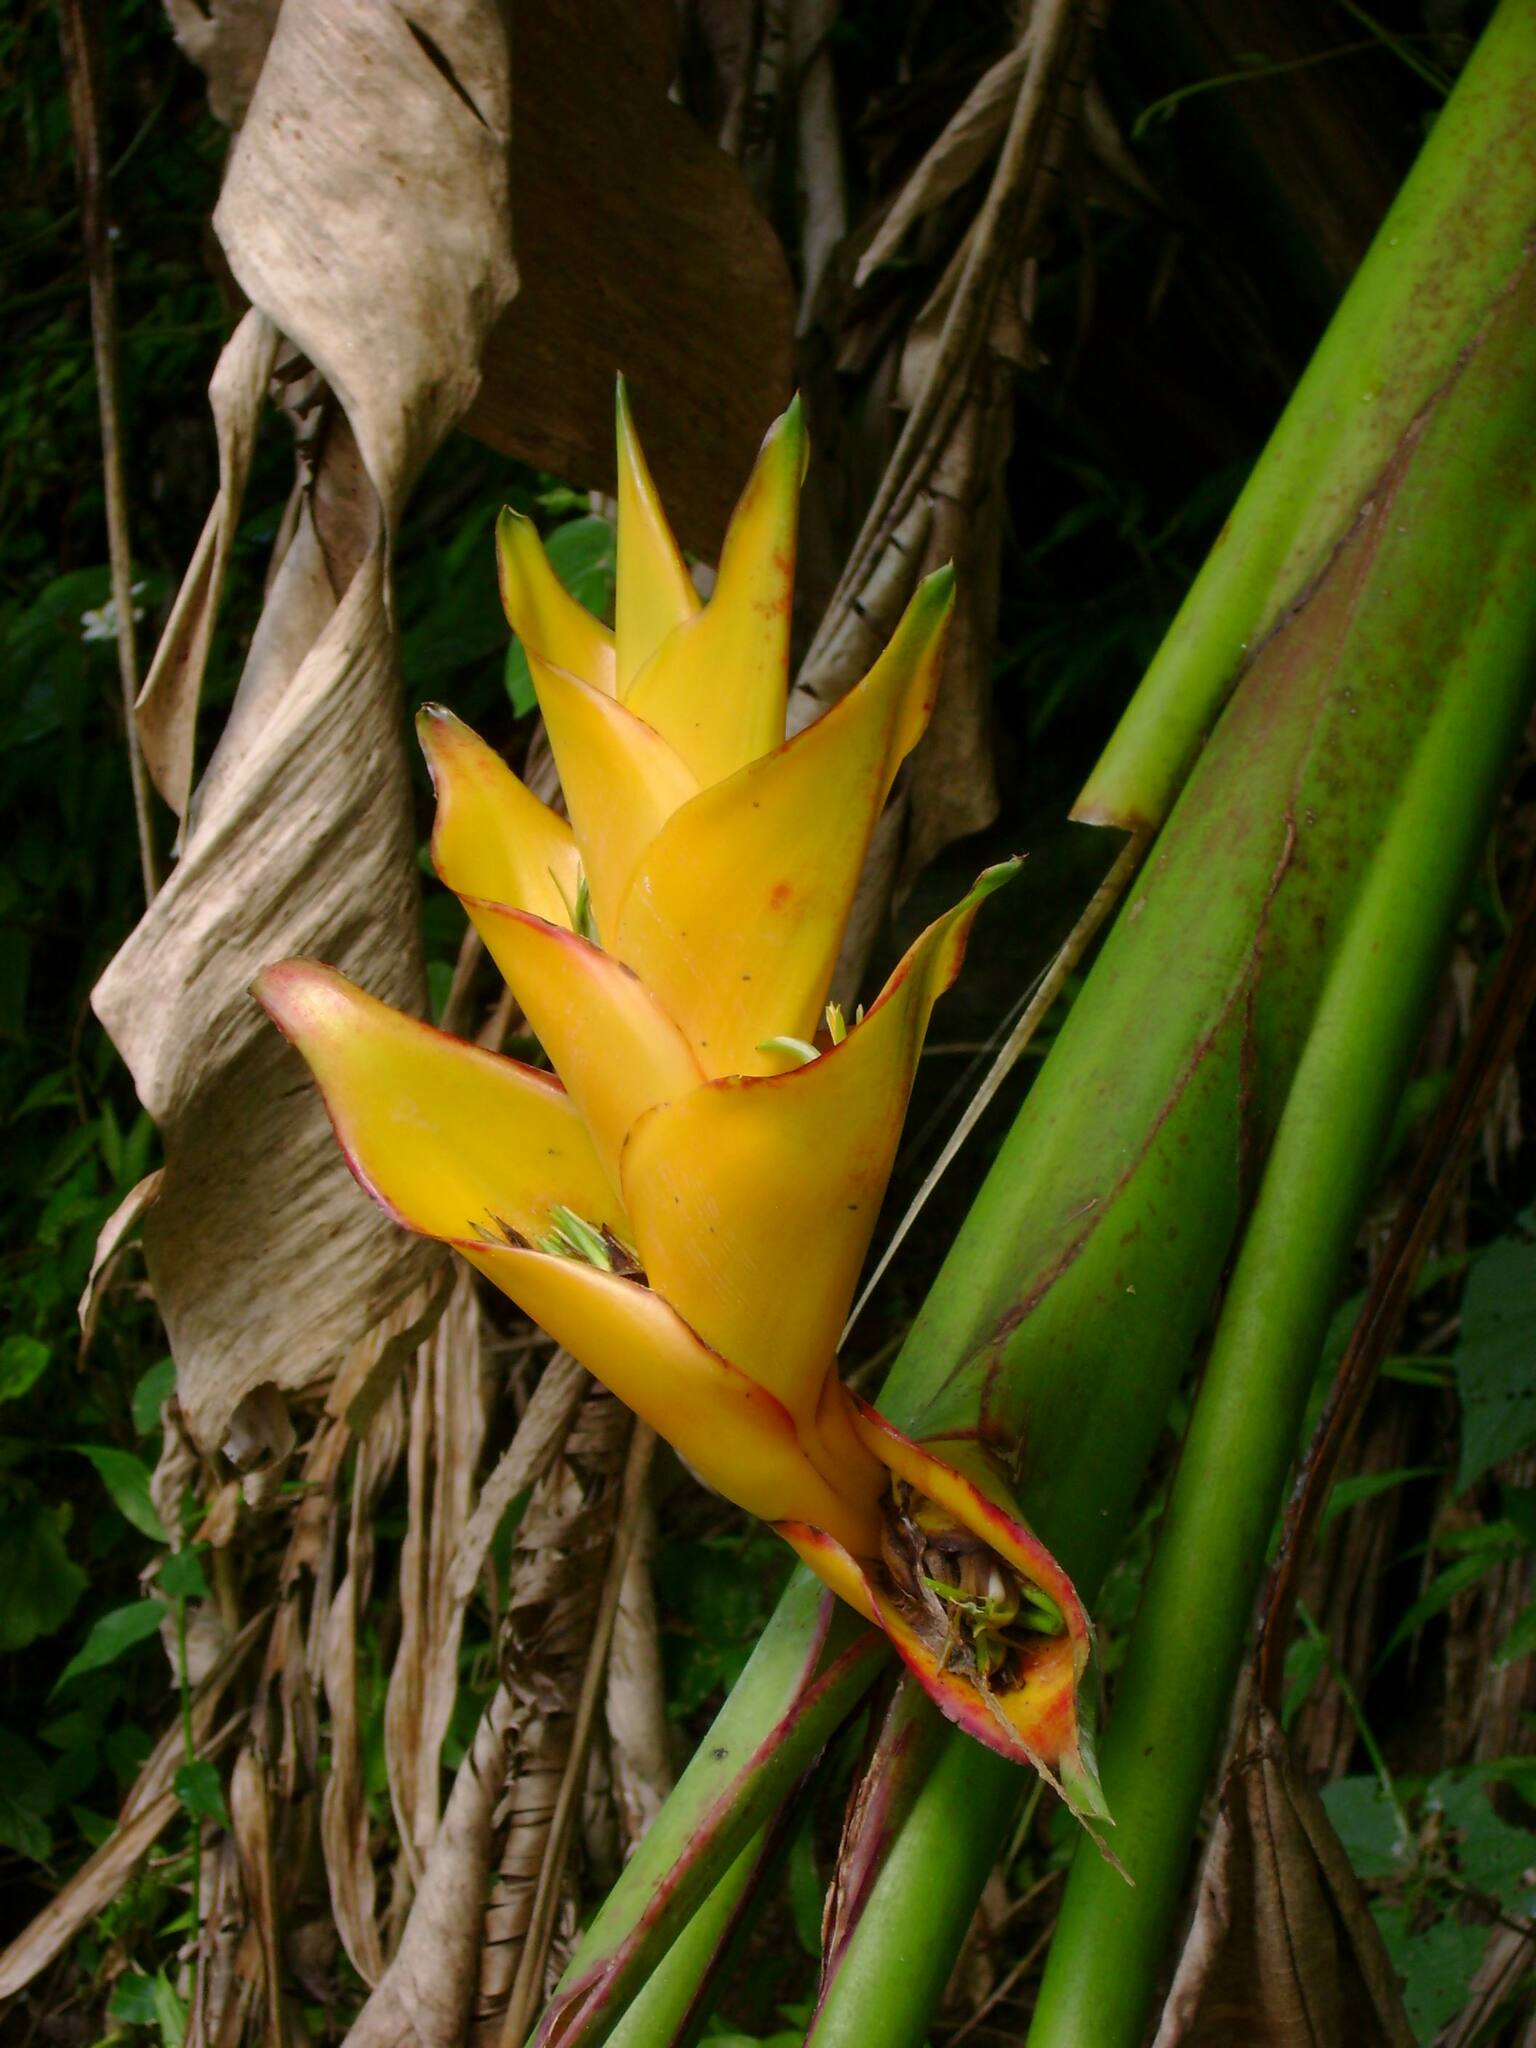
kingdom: Plantae
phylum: Tracheophyta
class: Liliopsida
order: Zingiberales
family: Heliconiaceae
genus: Heliconia
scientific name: Heliconia caribaea
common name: Wild plantain
